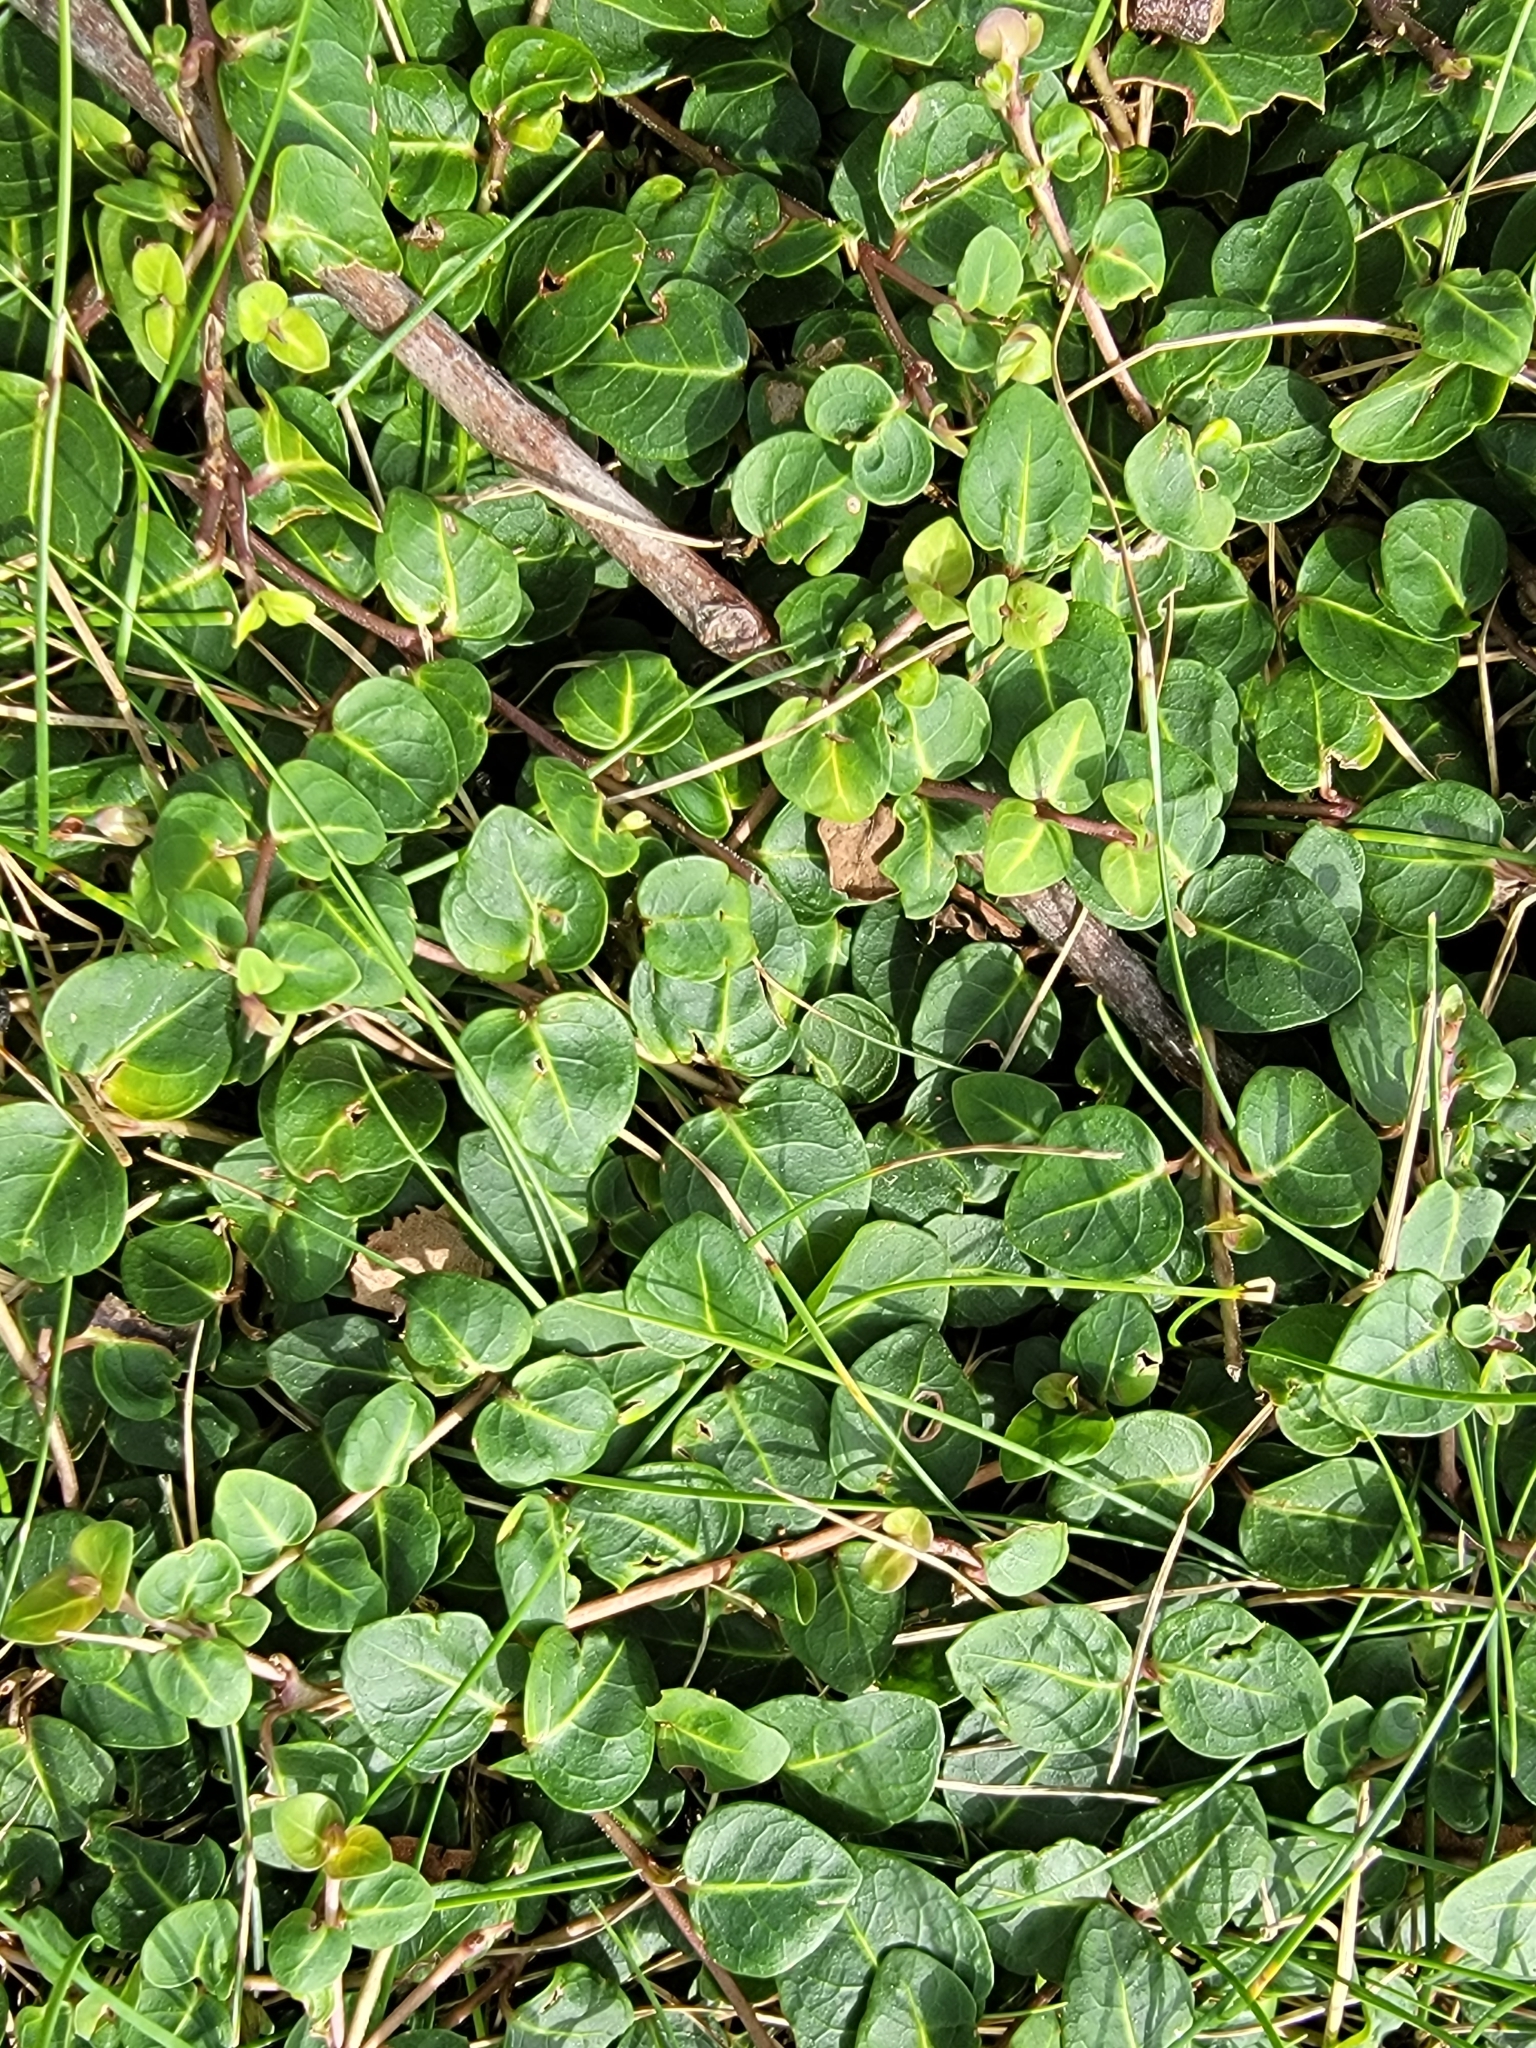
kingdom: Plantae
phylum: Tracheophyta
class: Magnoliopsida
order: Gentianales
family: Rubiaceae
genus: Mitchella
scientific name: Mitchella repens
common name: Partridge-berry
